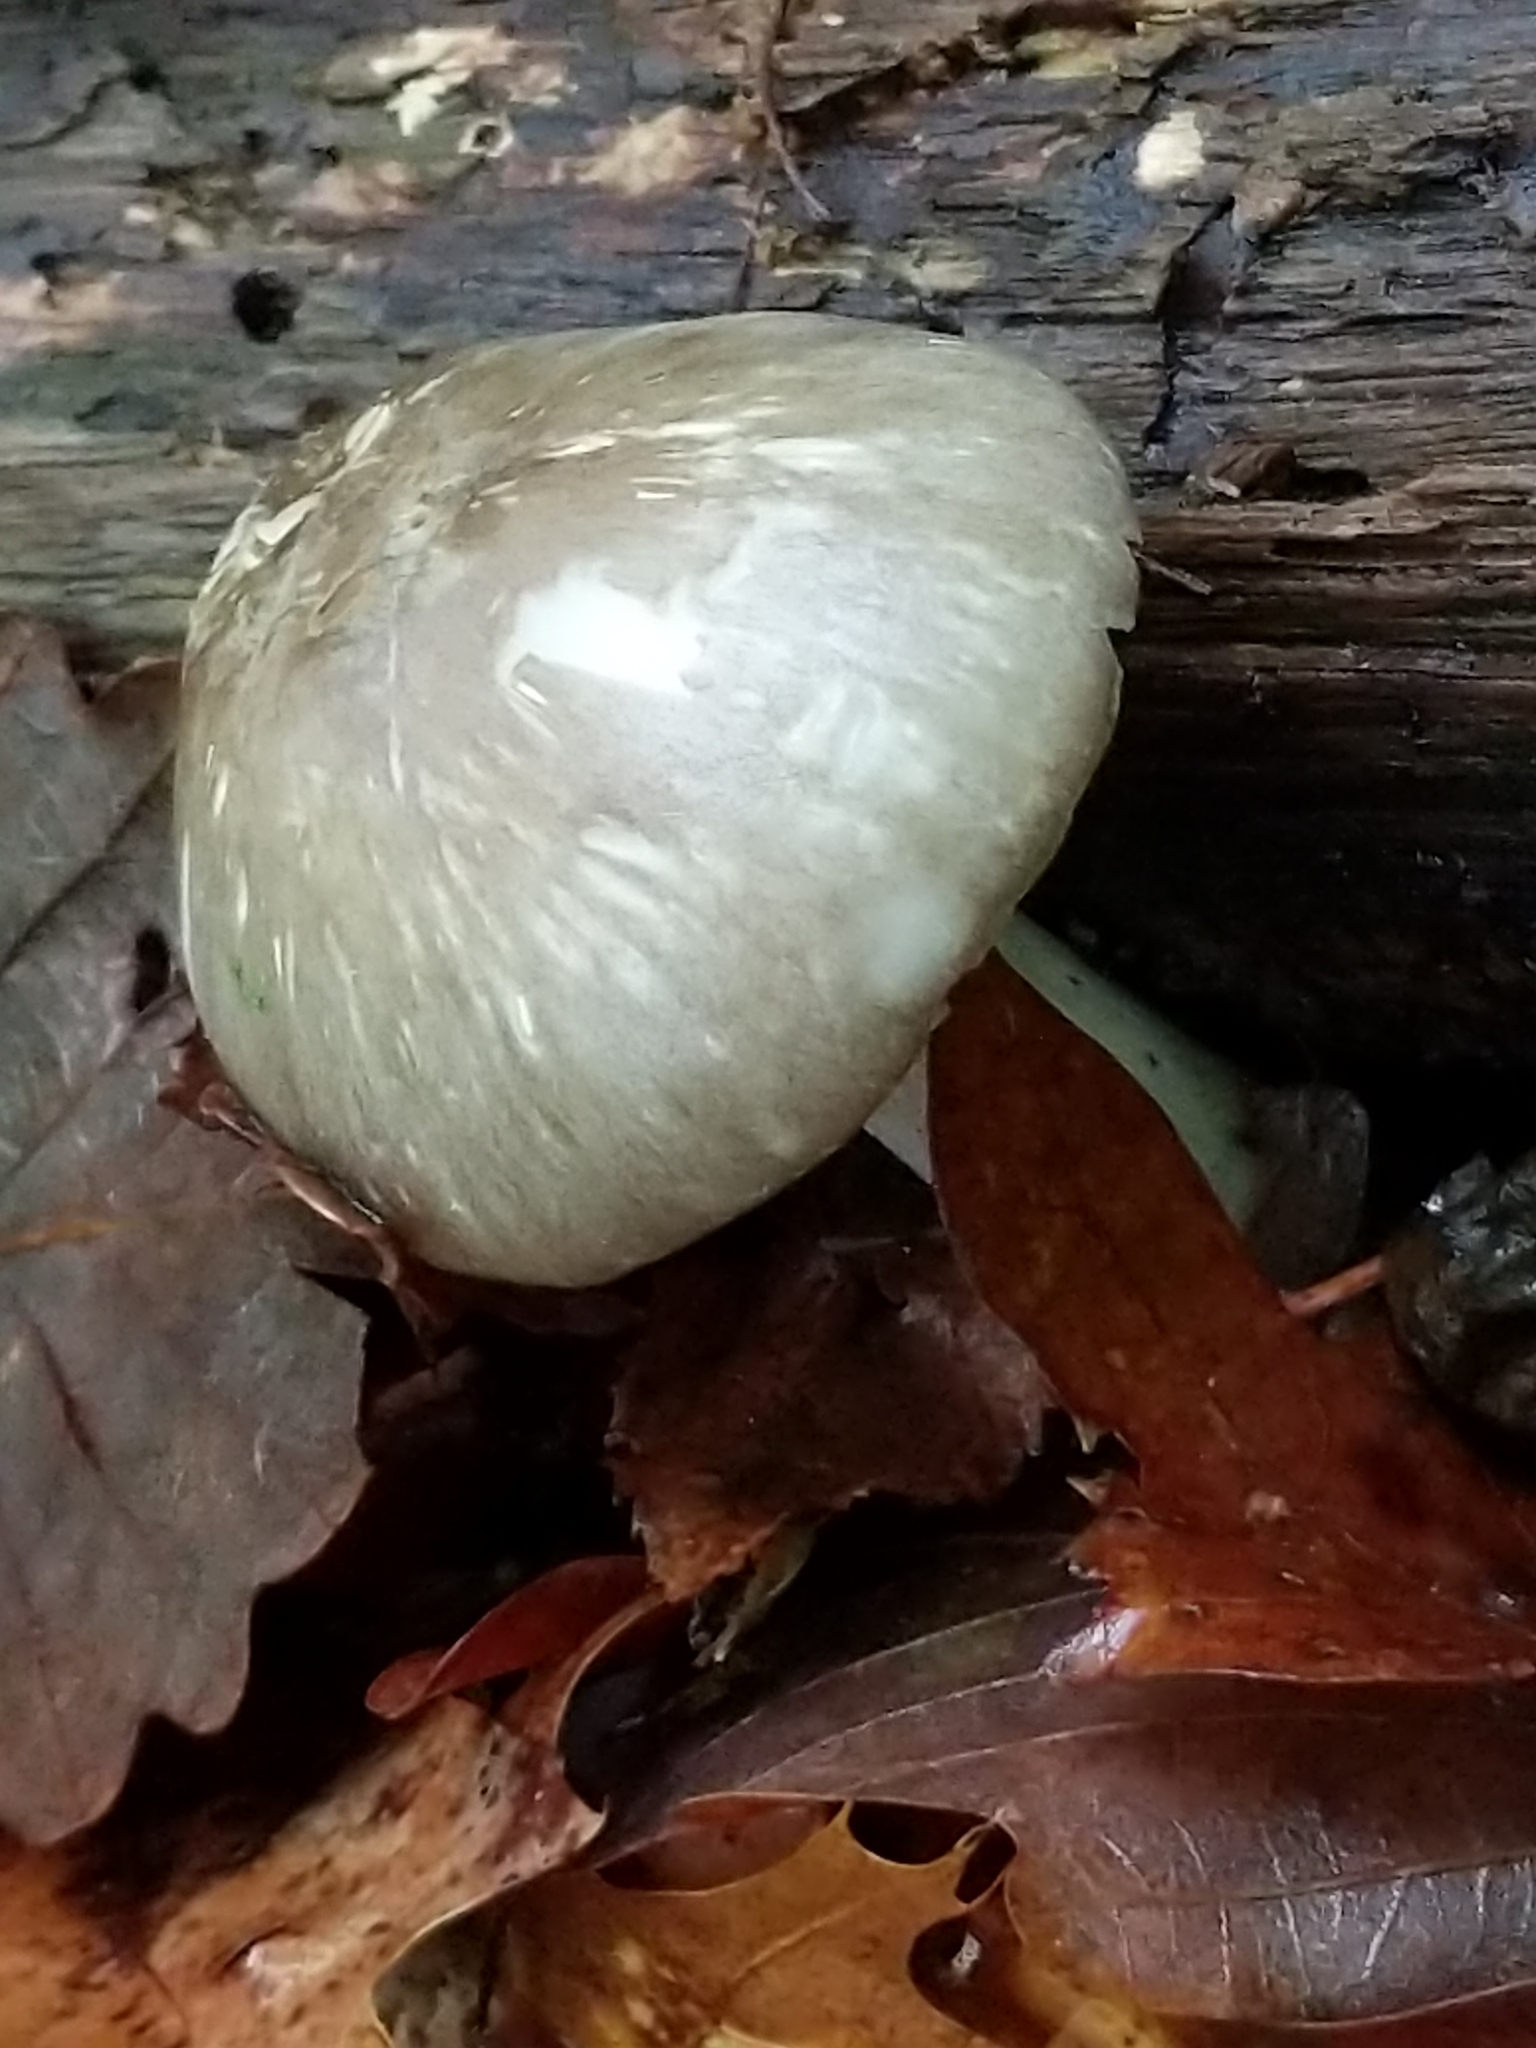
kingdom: Fungi
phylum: Basidiomycota
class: Agaricomycetes
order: Agaricales
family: Tricholomataceae
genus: Megacollybia
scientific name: Megacollybia rodmanii
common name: Eastern american platterful mushroom
